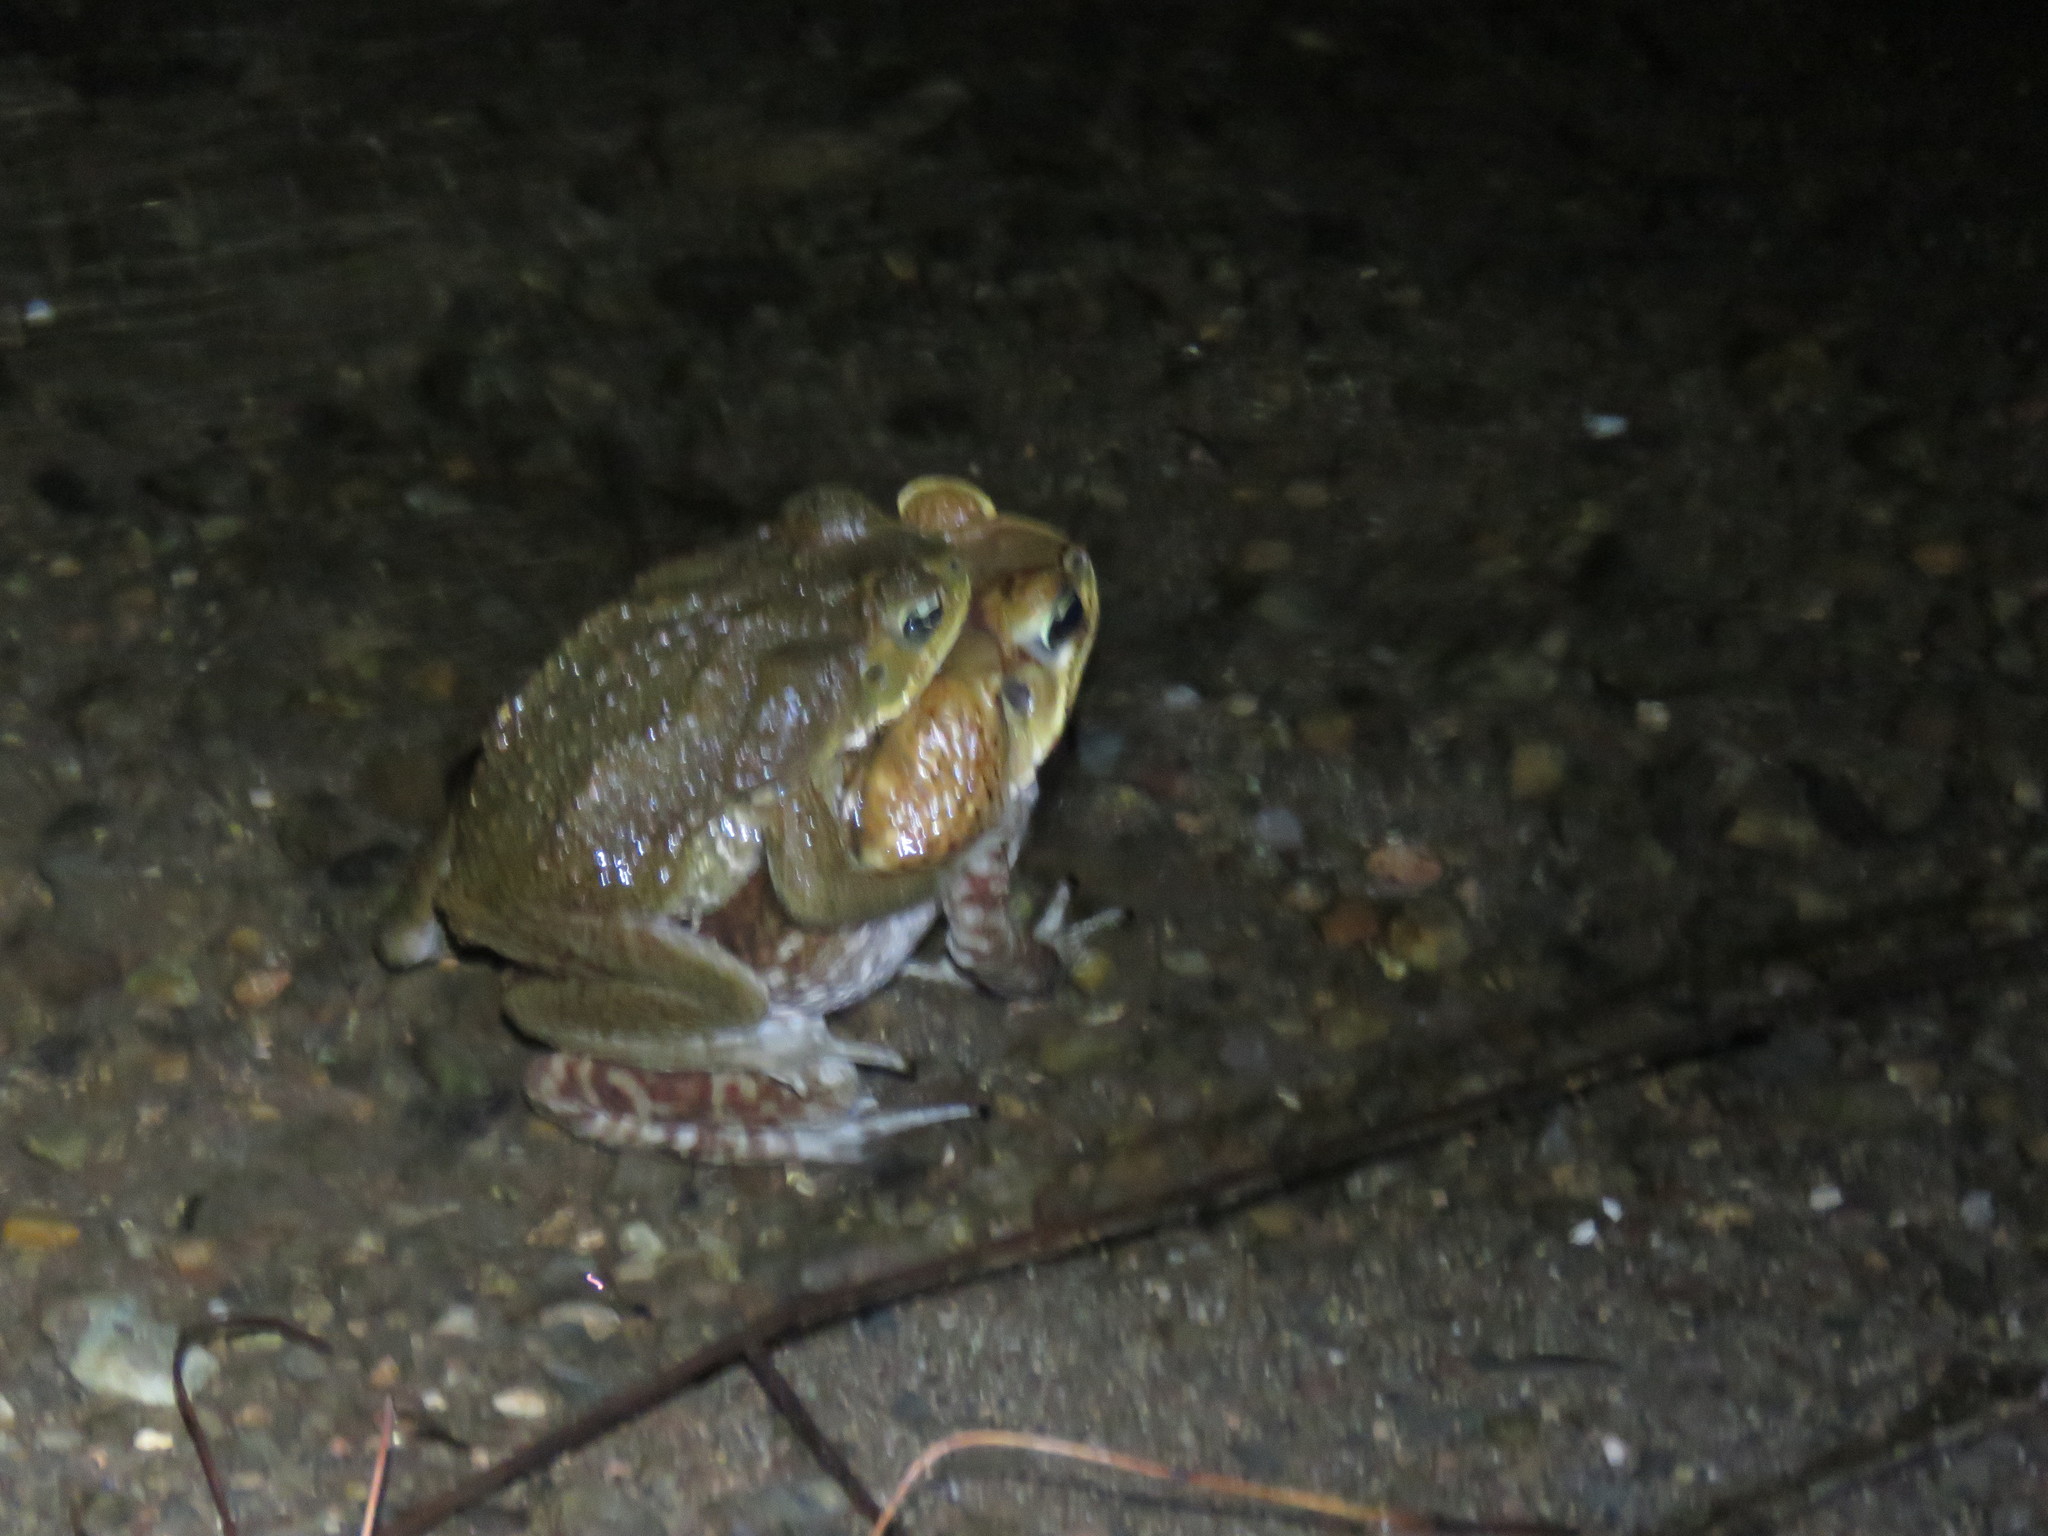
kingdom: Animalia
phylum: Chordata
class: Amphibia
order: Anura
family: Bufonidae
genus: Rhinella
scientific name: Rhinella horribilis
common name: Mesoamerican cane toad
